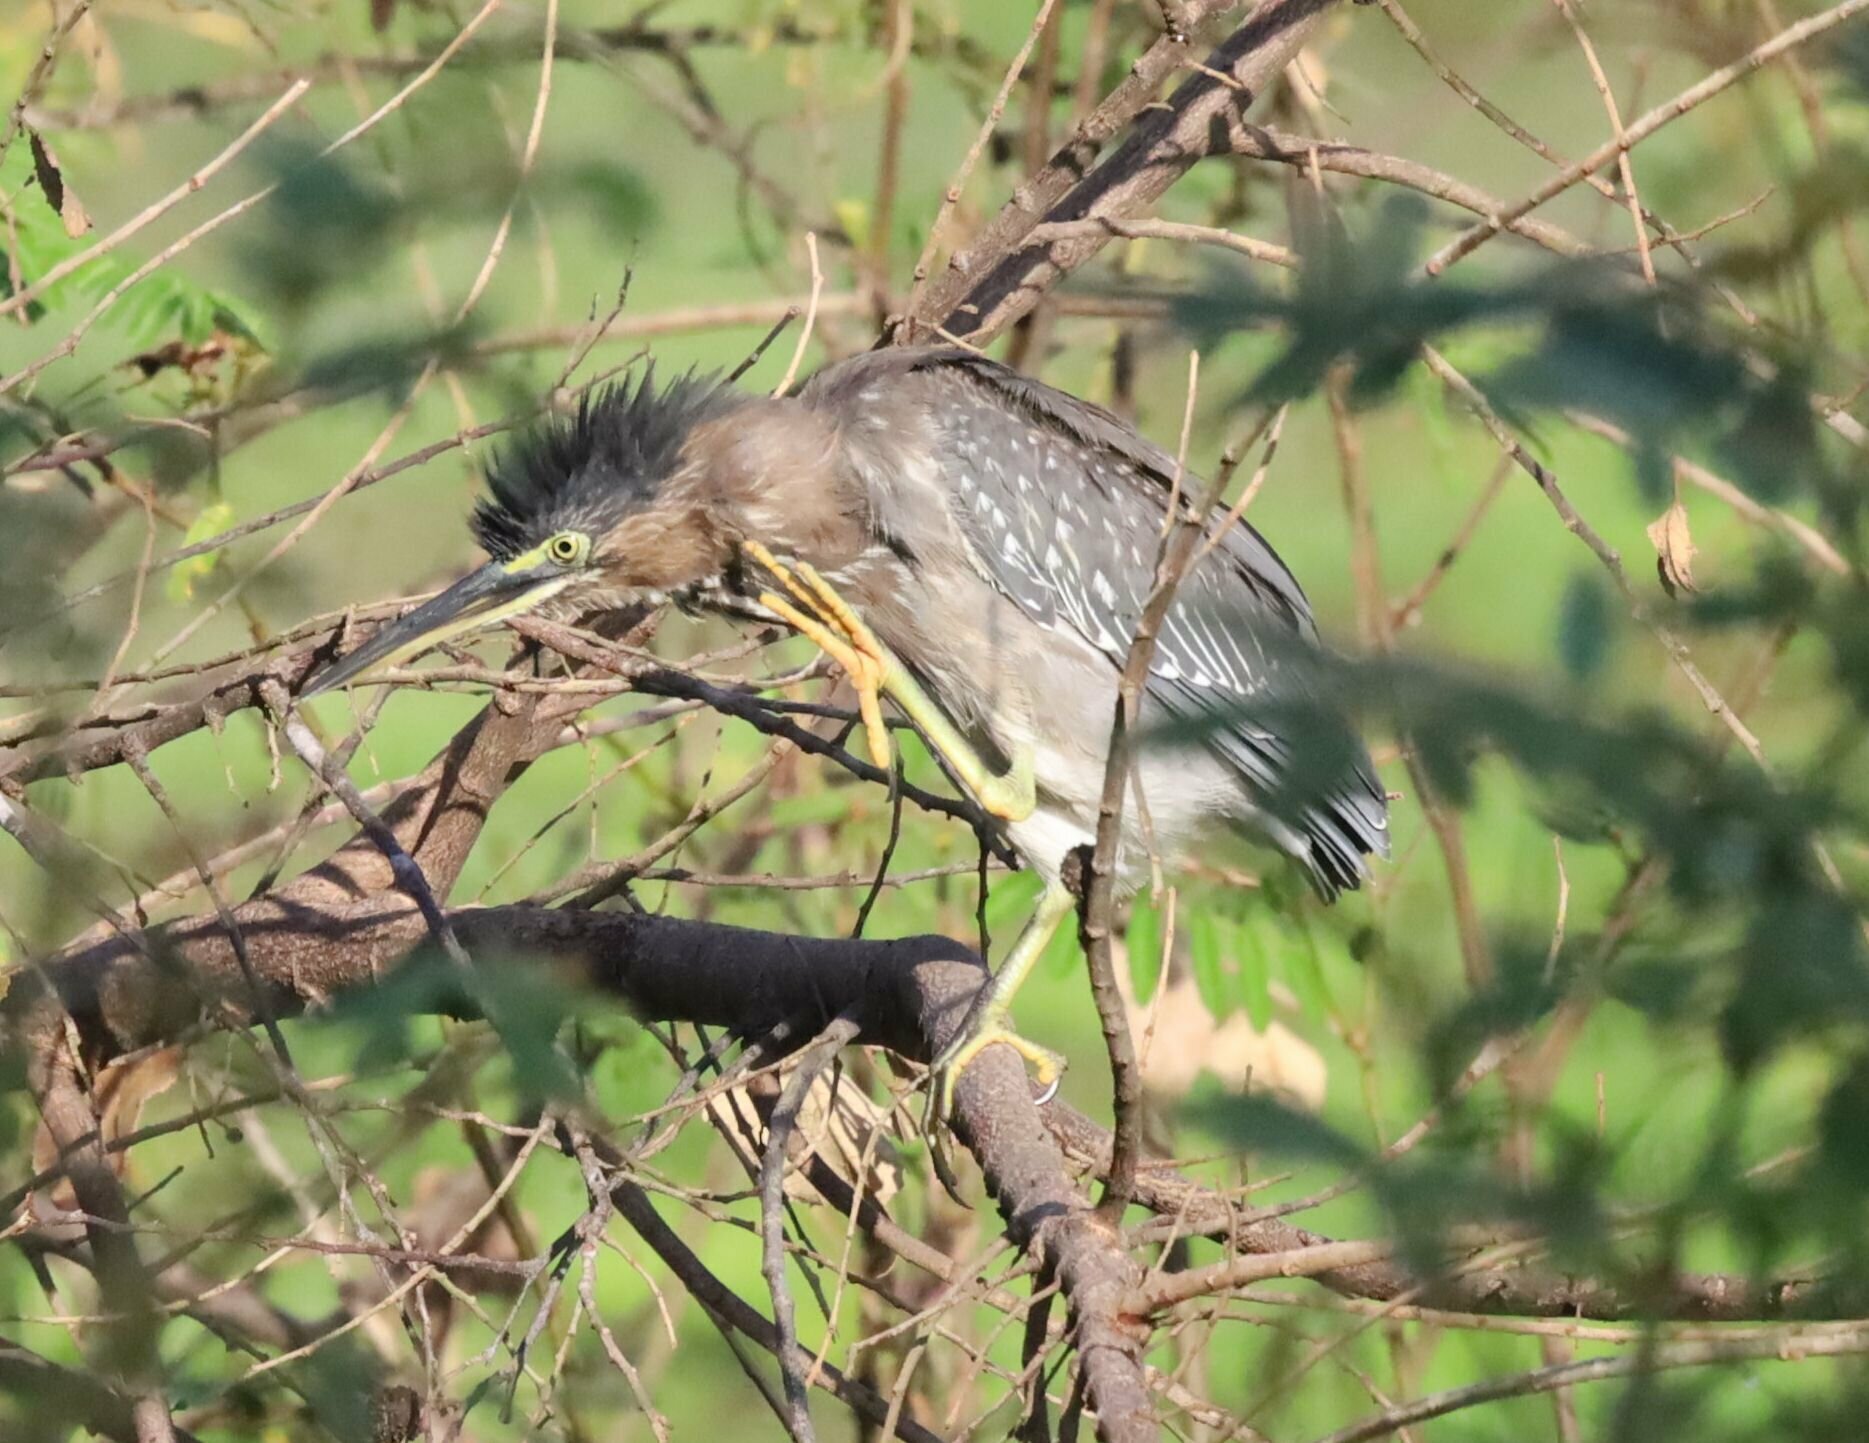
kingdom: Animalia
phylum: Chordata
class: Aves
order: Pelecaniformes
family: Ardeidae
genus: Butorides
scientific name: Butorides virescens
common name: Green heron
